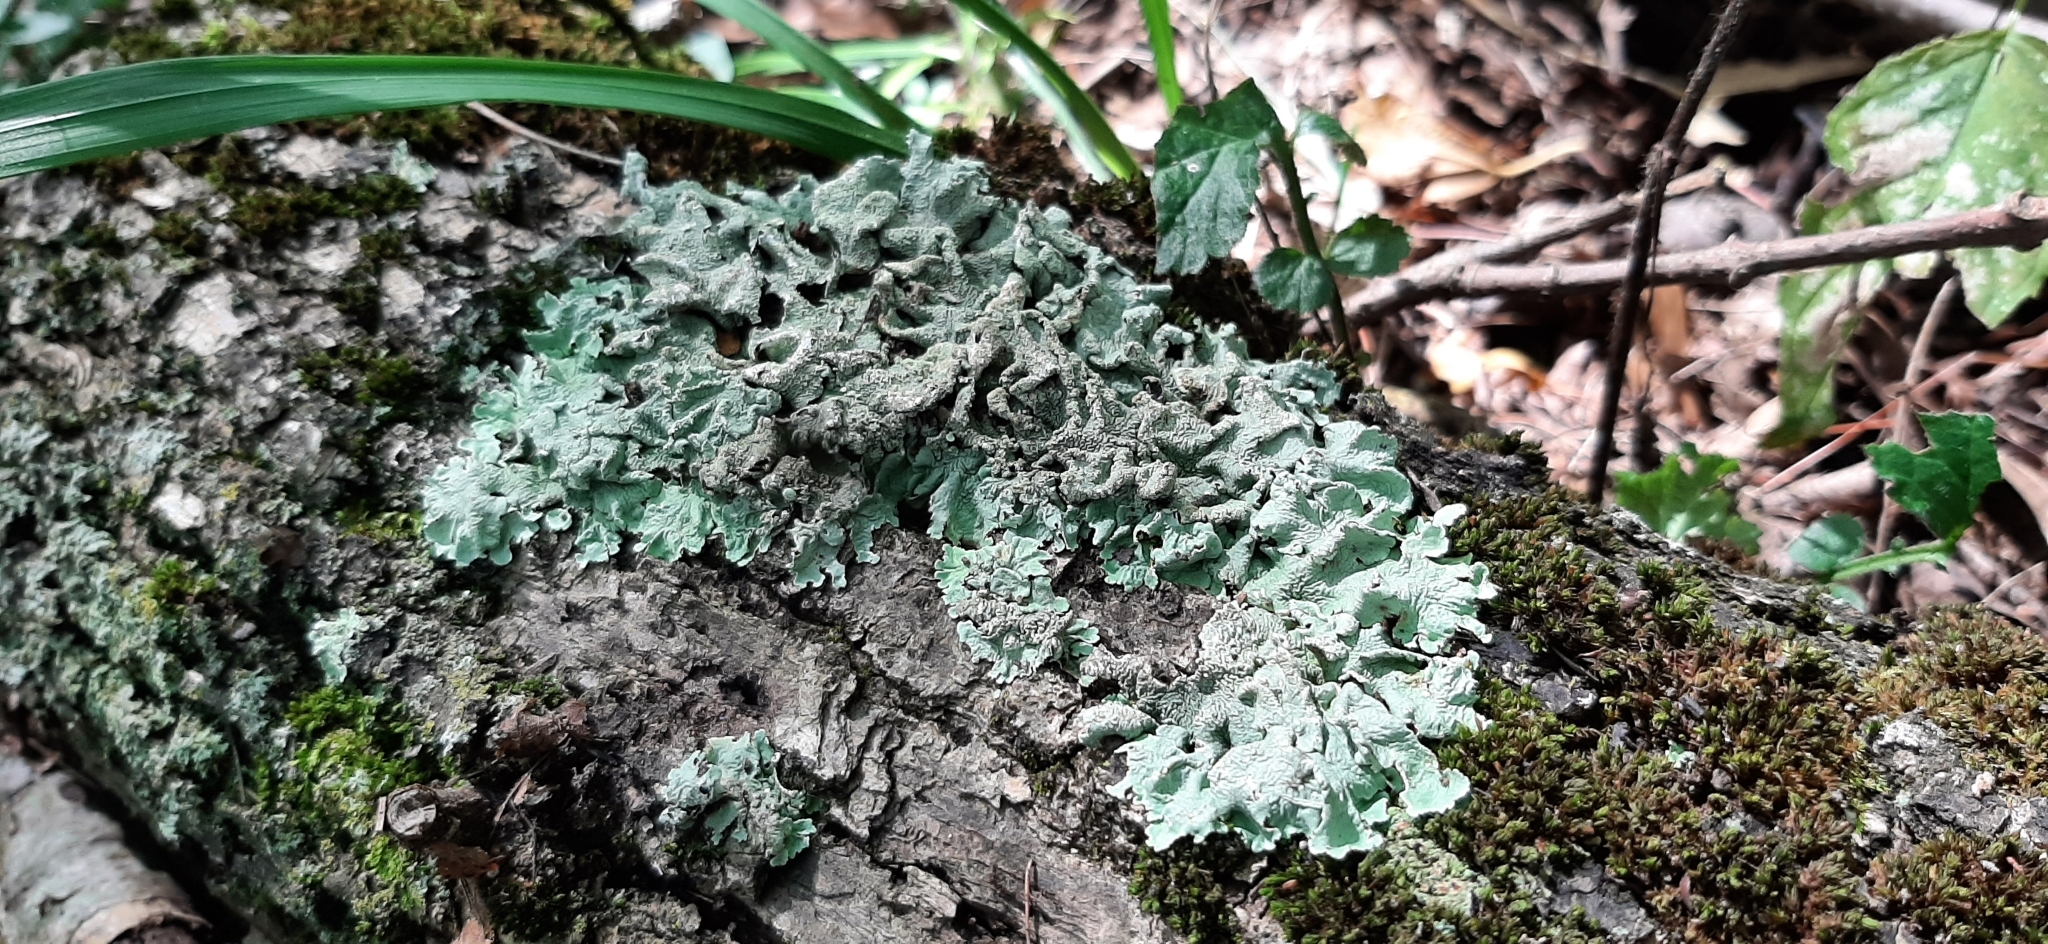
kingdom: Fungi
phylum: Ascomycota
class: Lecanoromycetes
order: Lecanorales
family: Parmeliaceae
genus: Flavoparmelia
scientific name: Flavoparmelia caperata
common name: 40-mile per hour lichen
